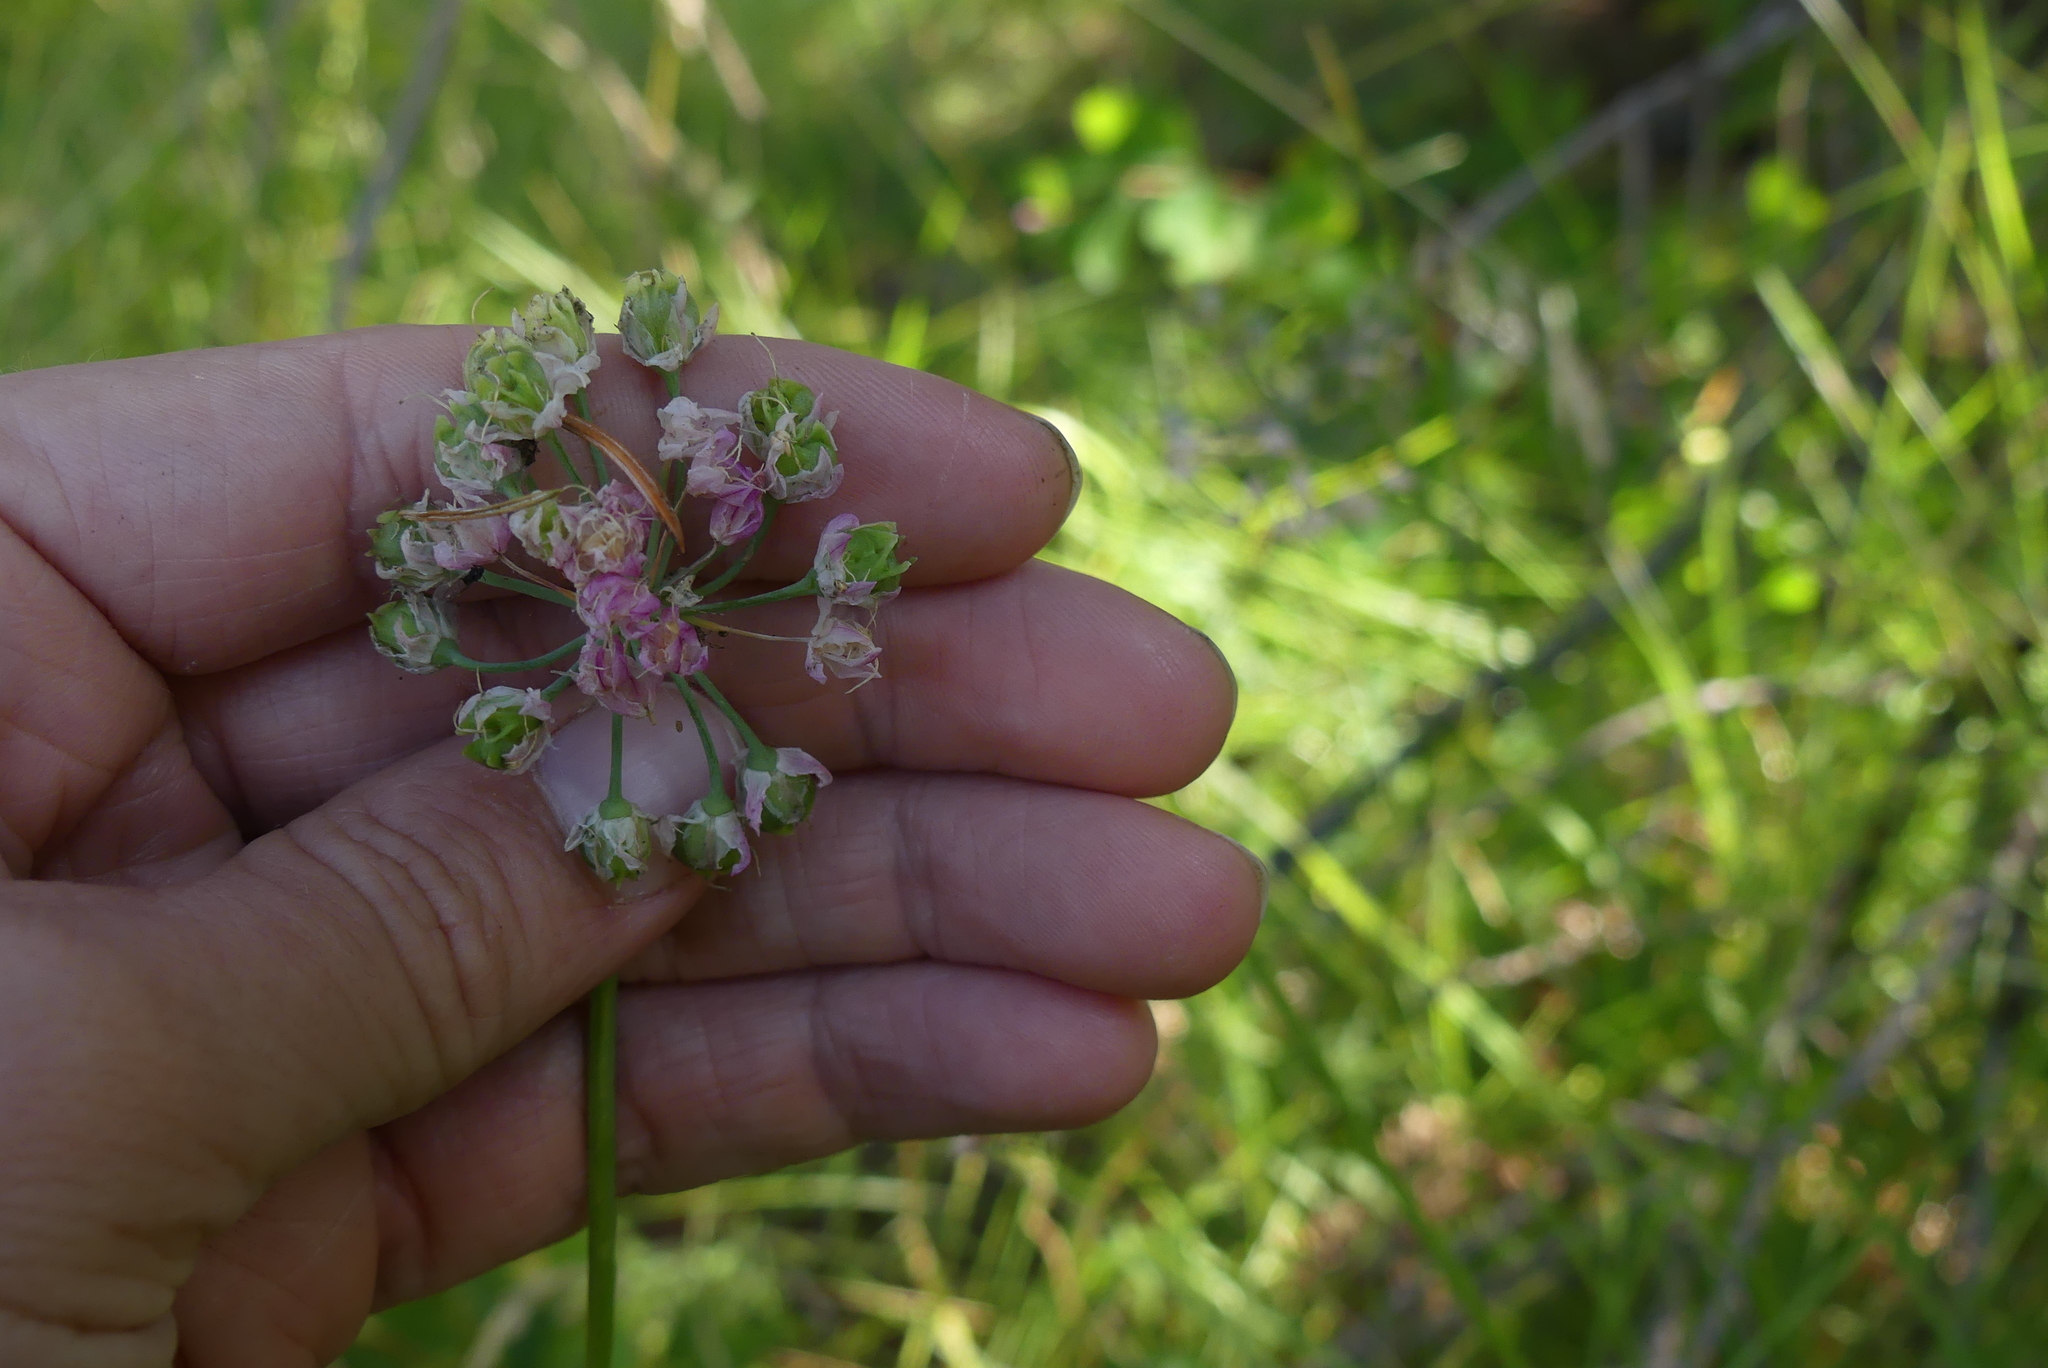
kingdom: Plantae
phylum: Tracheophyta
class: Liliopsida
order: Asparagales
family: Amaryllidaceae
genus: Allium
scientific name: Allium cernuum
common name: Nodding onion
